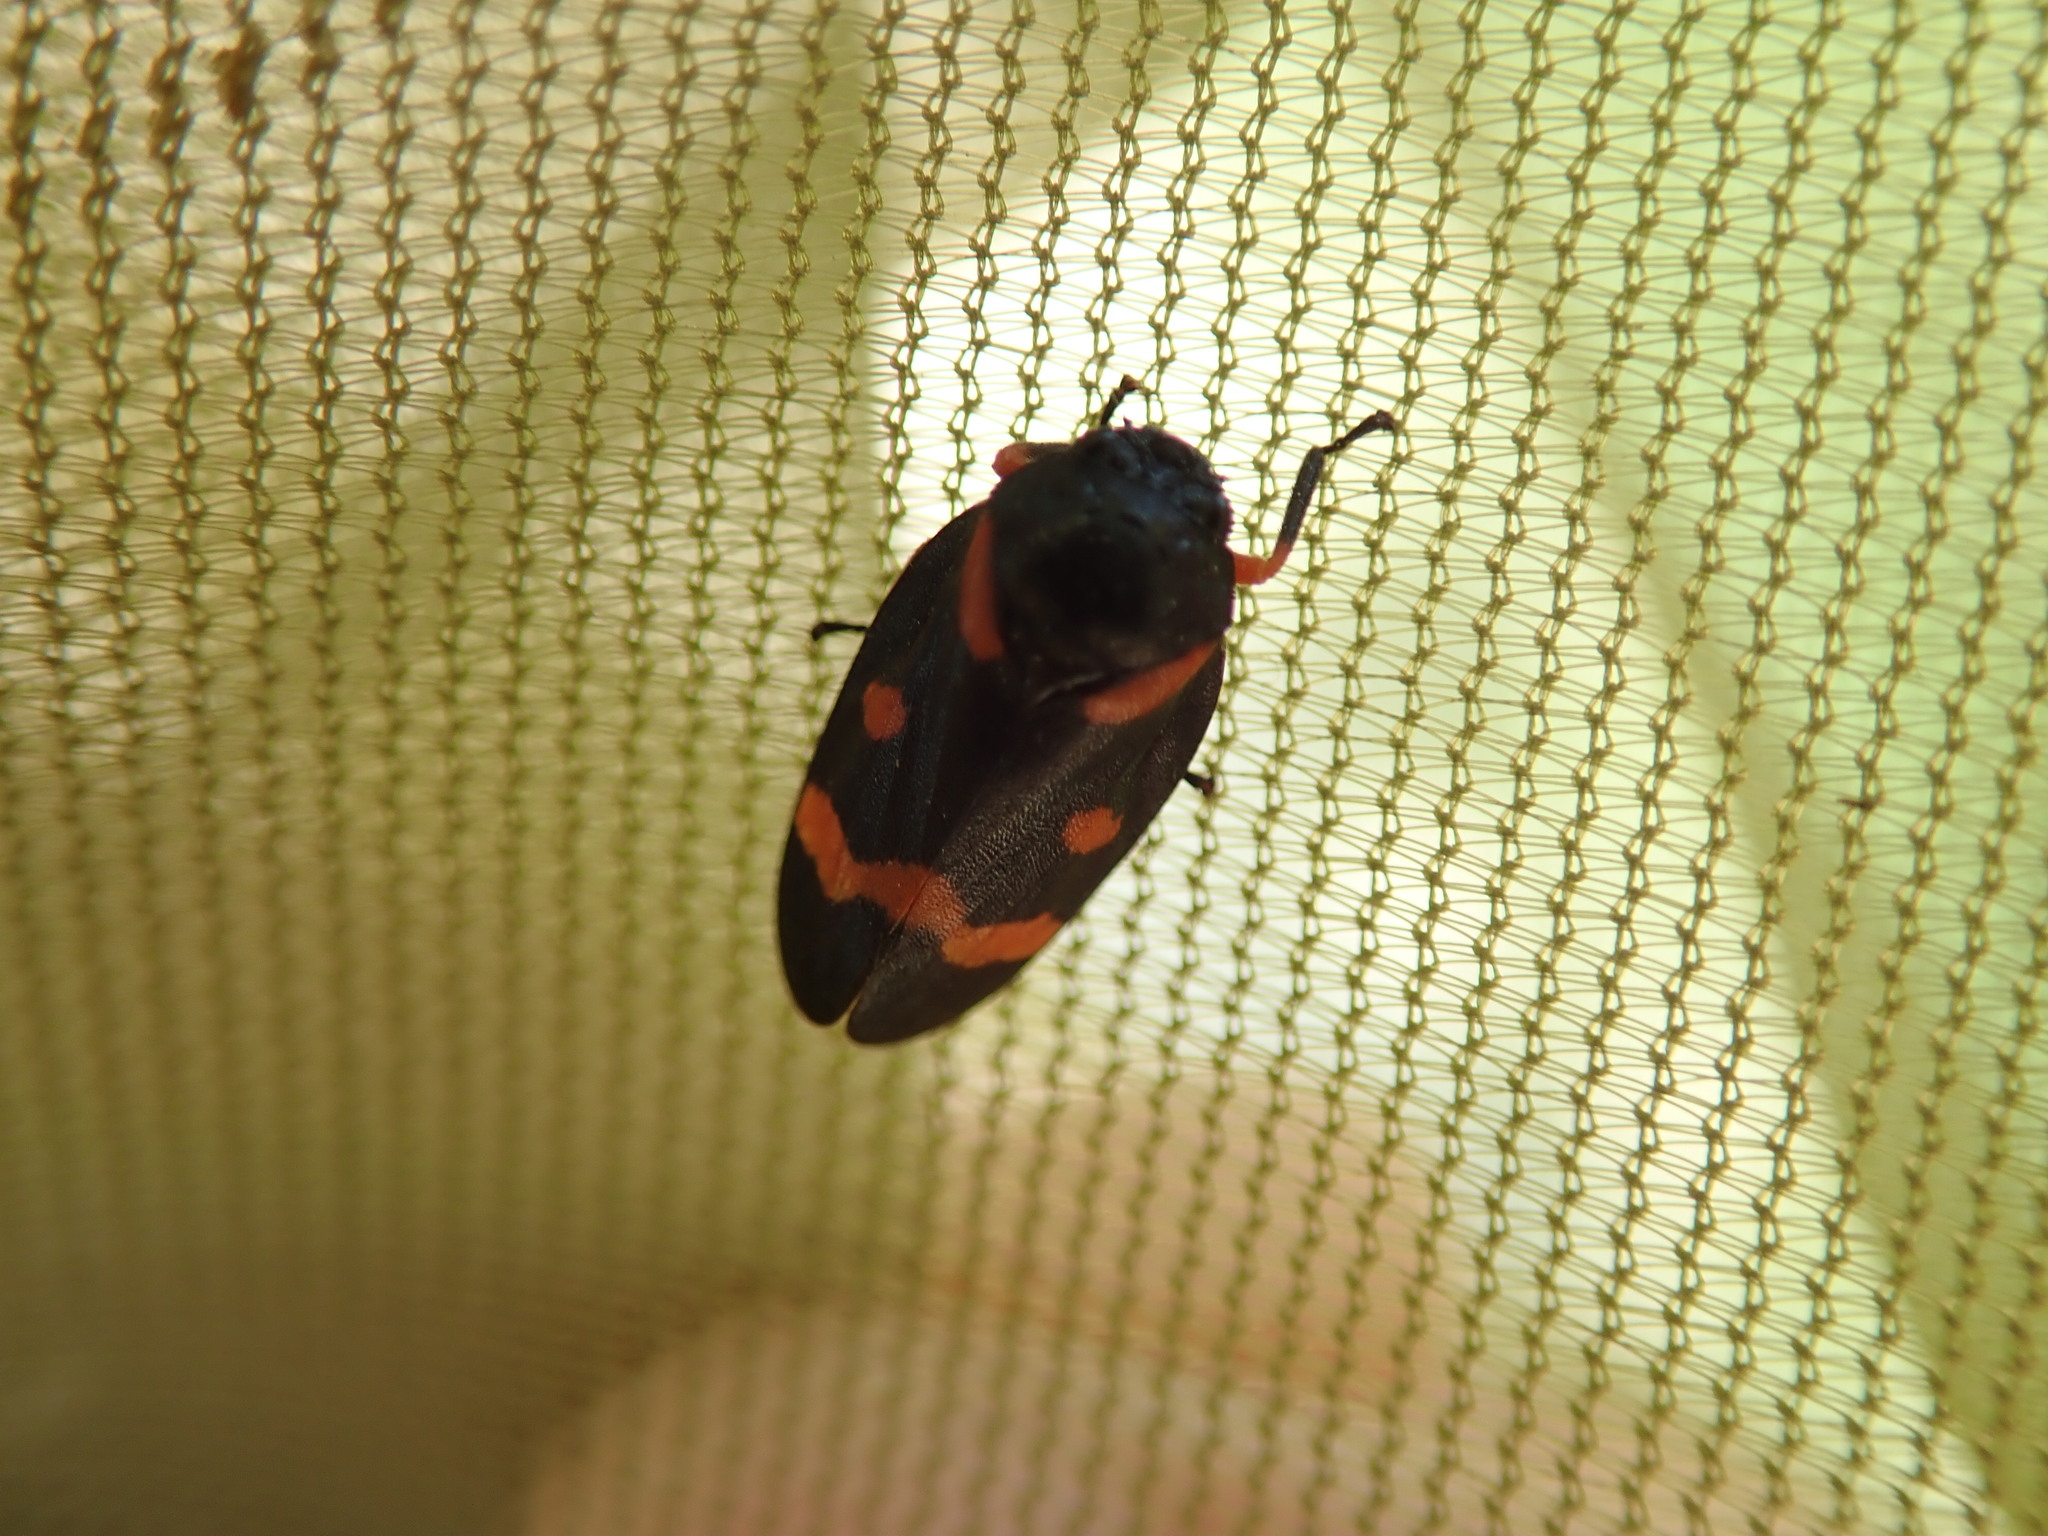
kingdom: Animalia
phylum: Arthropoda
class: Insecta
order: Hemiptera
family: Cercopidae
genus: Cercopis
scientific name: Cercopis intermedia
